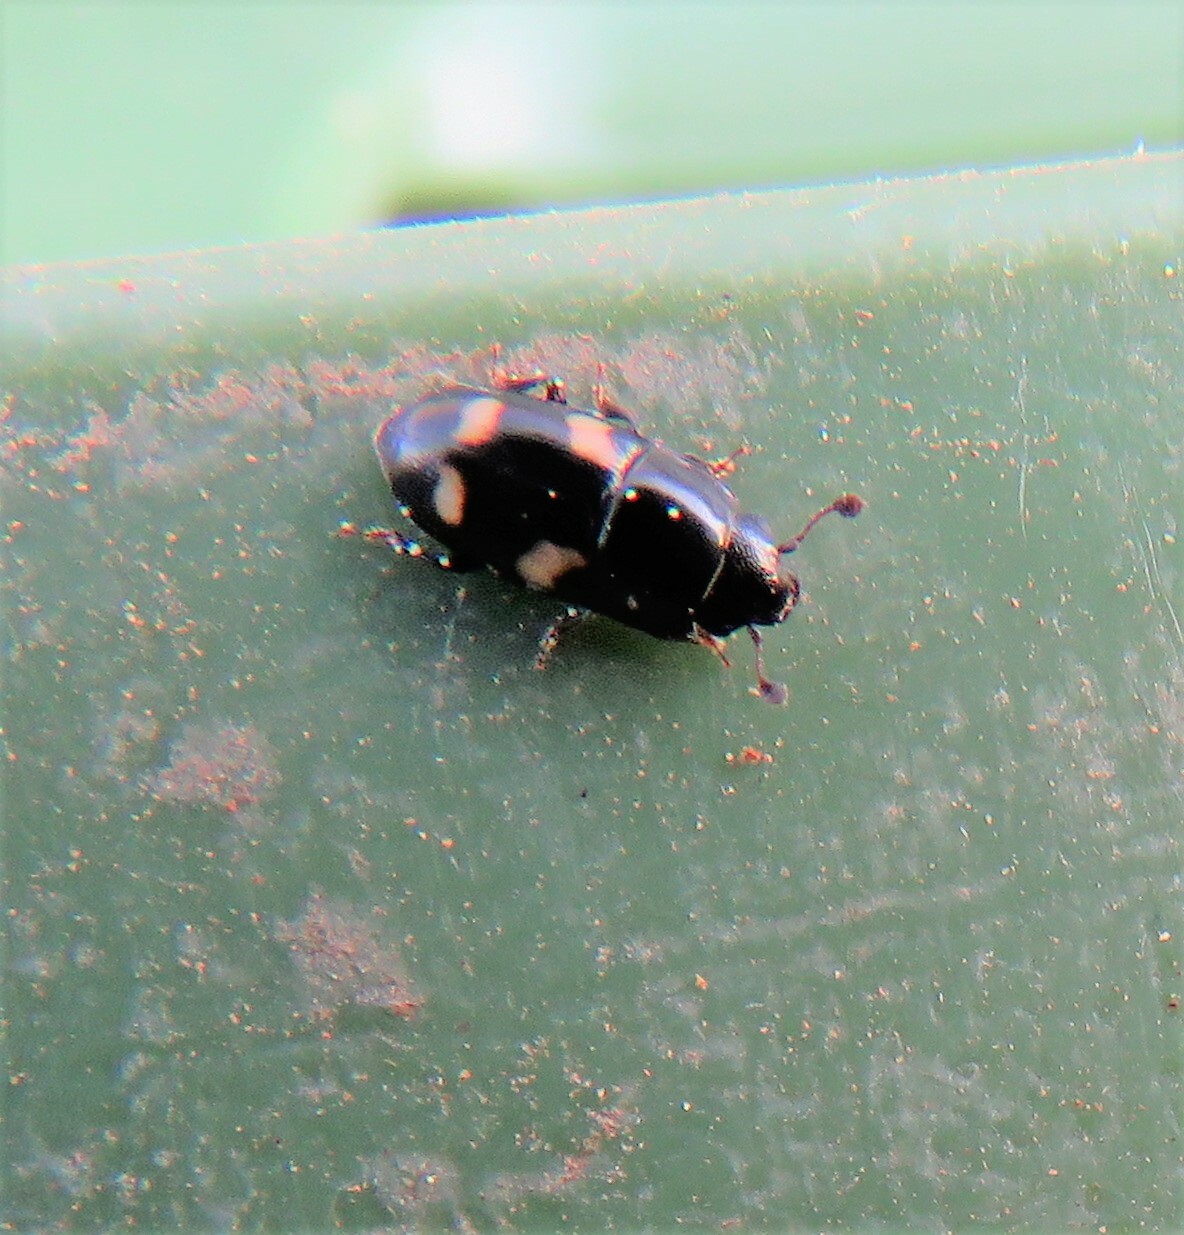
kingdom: Animalia
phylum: Arthropoda
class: Insecta
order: Coleoptera
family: Nitidulidae
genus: Glischrochilus
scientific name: Glischrochilus quadrisignatus
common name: Picnic beetle
